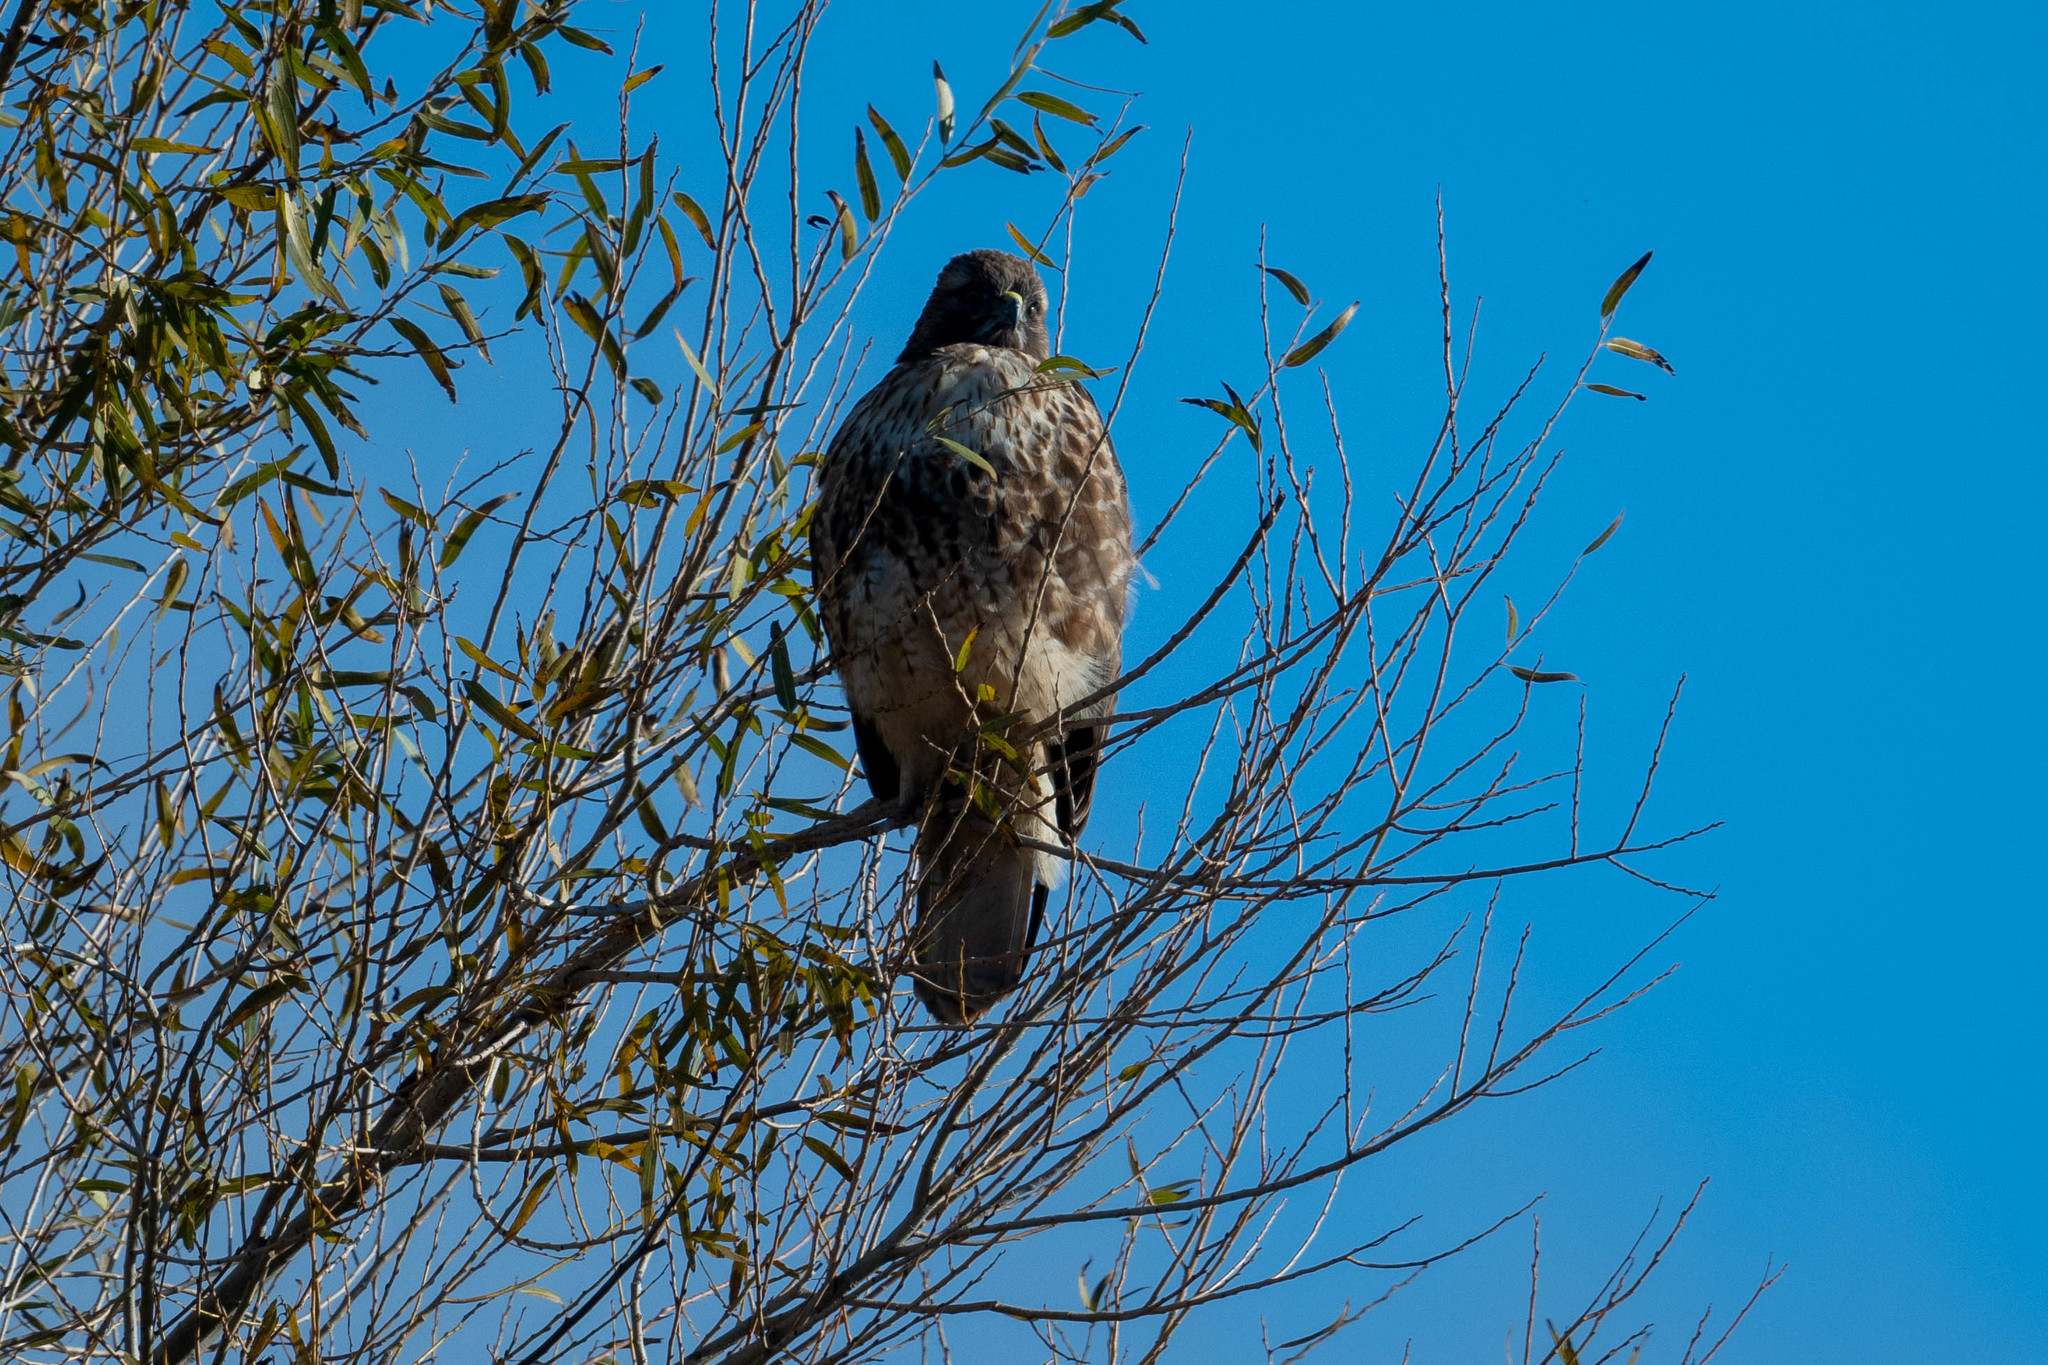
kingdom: Animalia
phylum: Chordata
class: Aves
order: Accipitriformes
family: Accipitridae
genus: Buteo
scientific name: Buteo jamaicensis
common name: Red-tailed hawk
